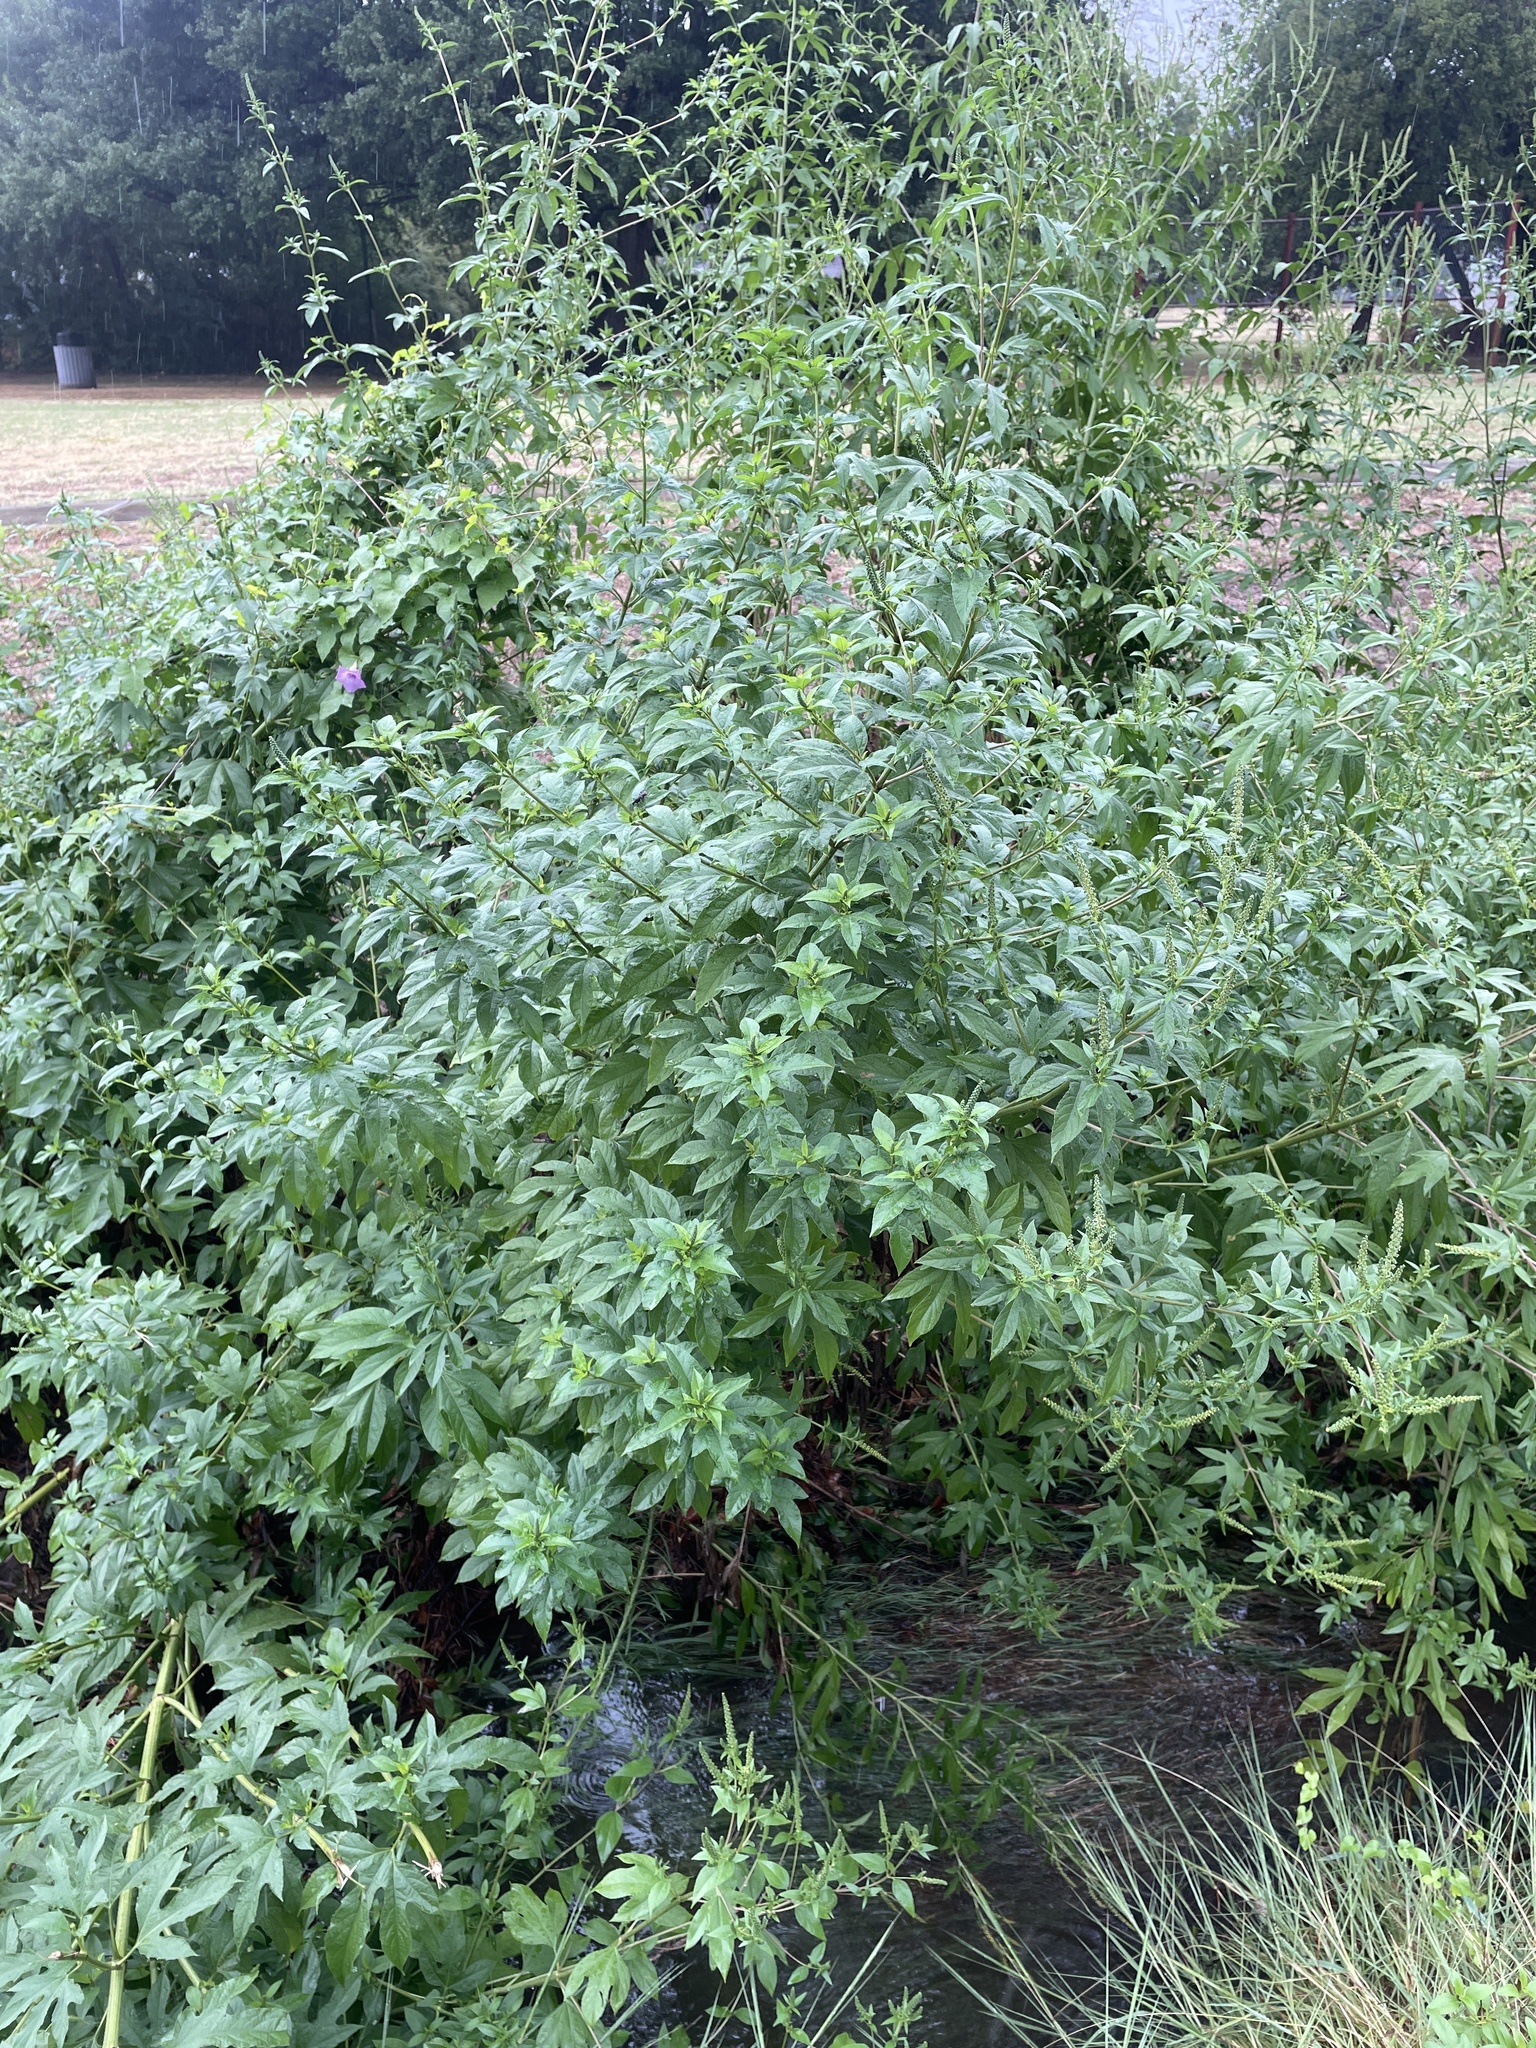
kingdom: Plantae
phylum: Tracheophyta
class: Magnoliopsida
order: Asterales
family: Asteraceae
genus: Ambrosia
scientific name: Ambrosia trifida
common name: Giant ragweed
